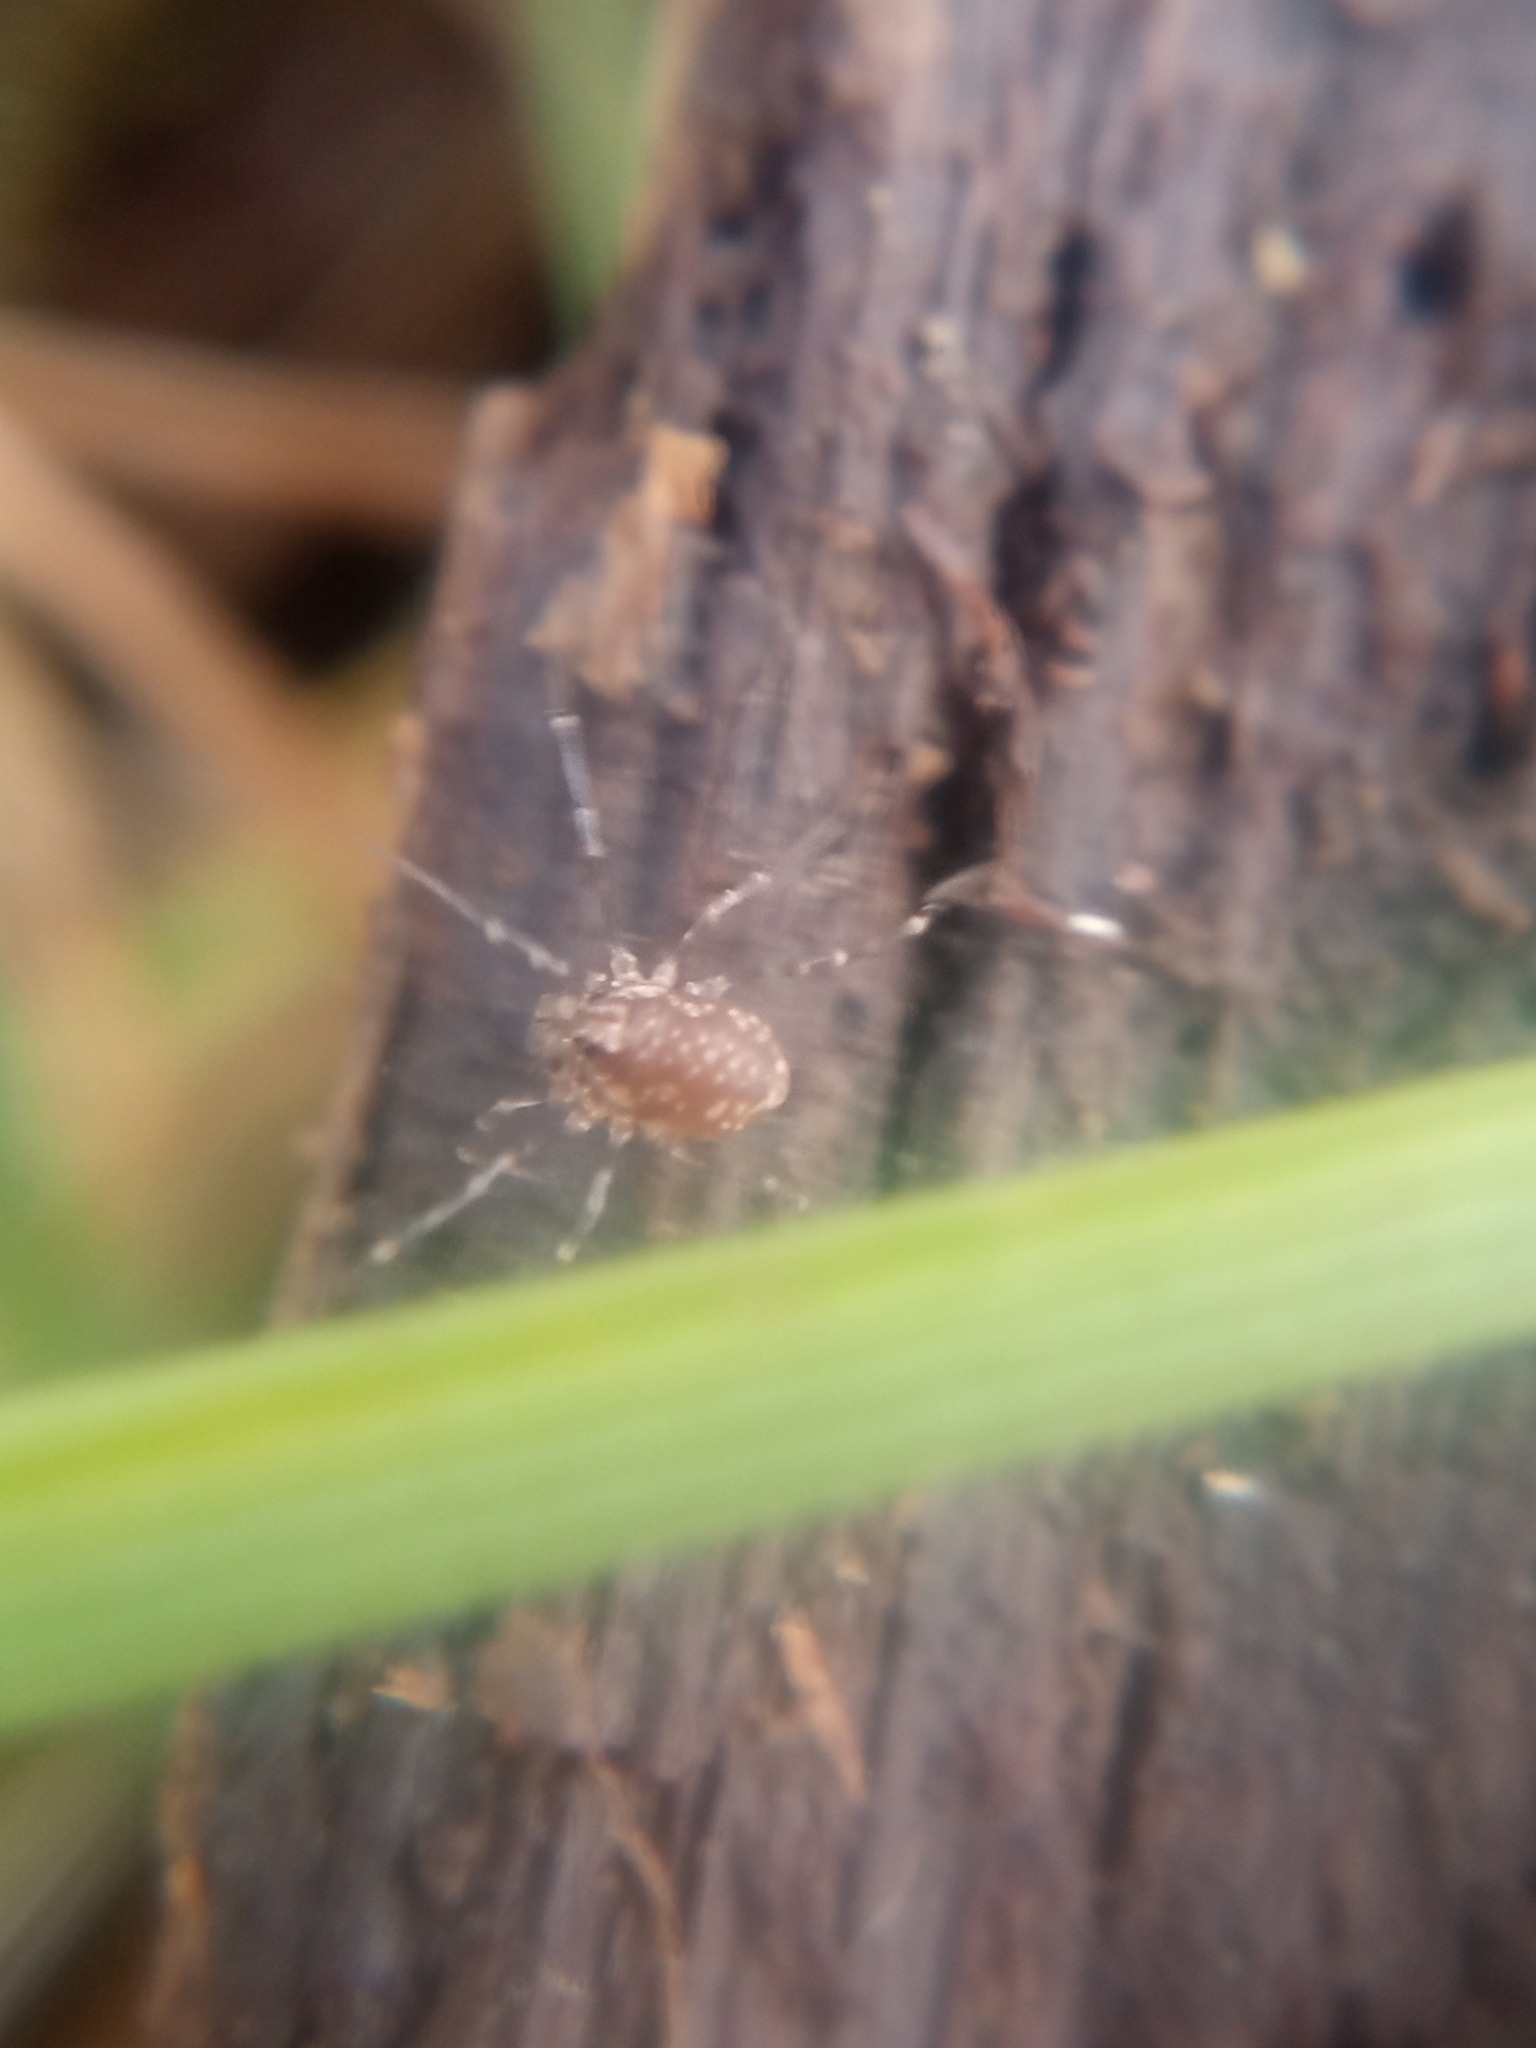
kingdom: Animalia
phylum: Arthropoda
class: Arachnida
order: Opiliones
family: Phalangiidae
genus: Rilaena
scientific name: Rilaena triangularis
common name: Spring harvestman
